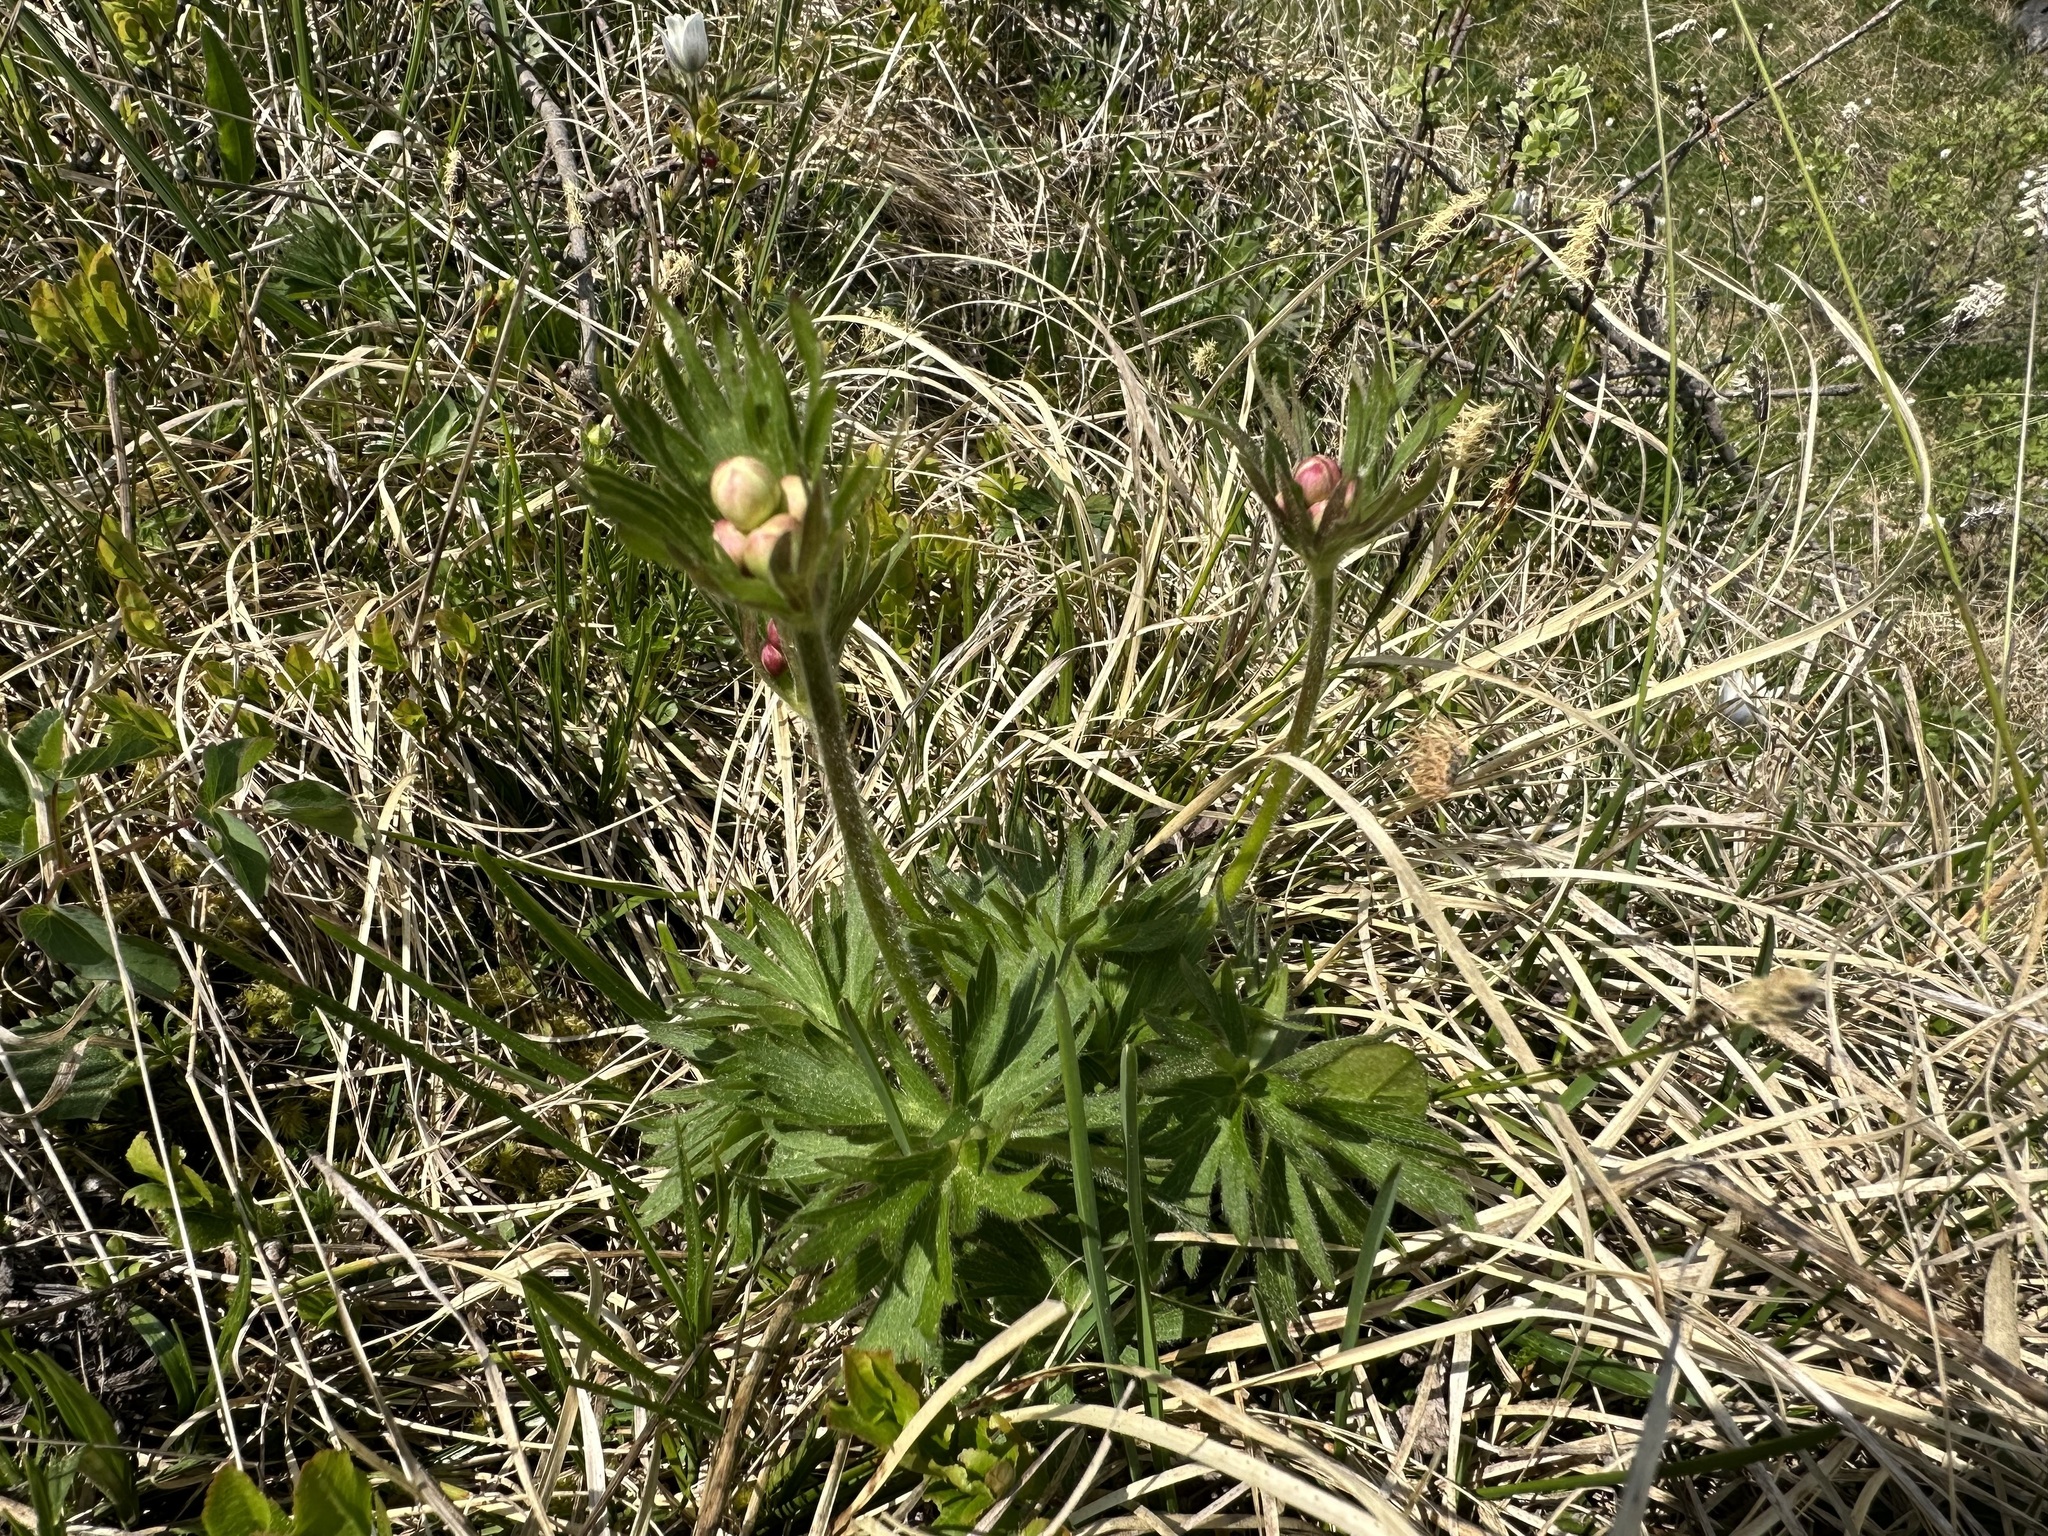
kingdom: Plantae
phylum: Tracheophyta
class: Magnoliopsida
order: Ranunculales
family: Ranunculaceae
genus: Anemonastrum
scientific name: Anemonastrum narcissiflorum
